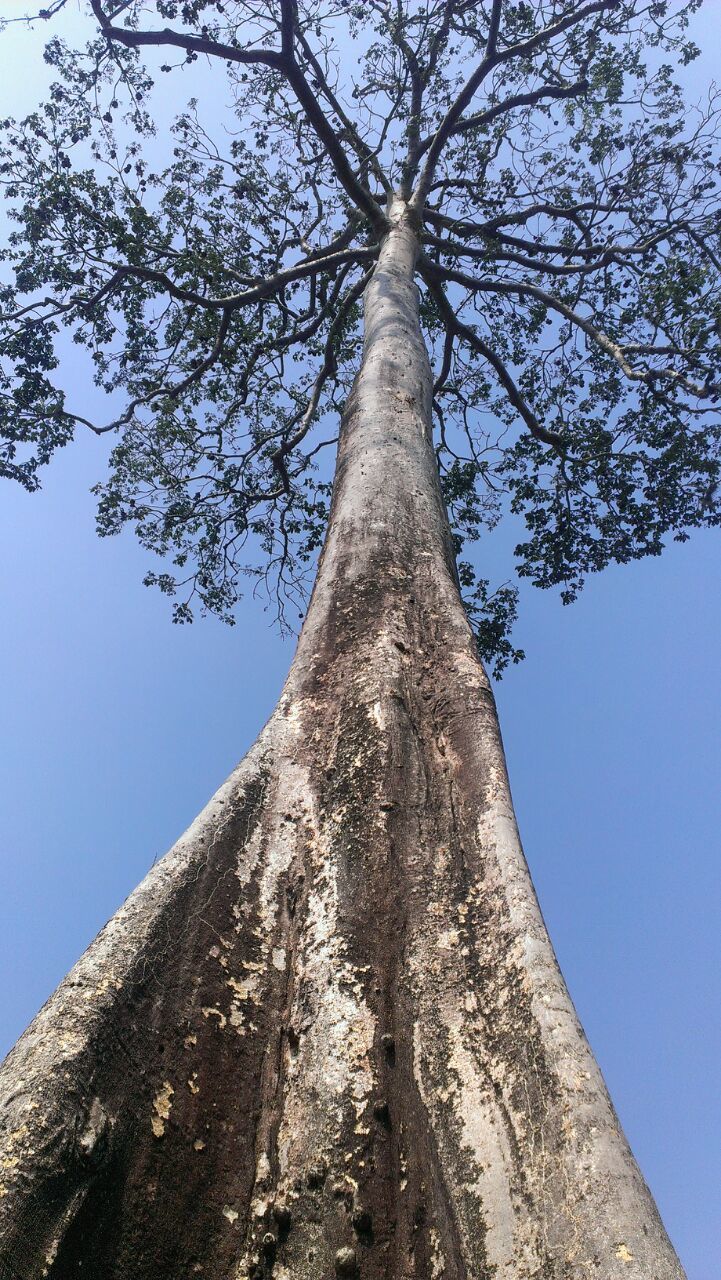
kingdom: Plantae
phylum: Tracheophyta
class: Magnoliopsida
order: Malvales
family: Malvaceae
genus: Ceiba
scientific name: Ceiba pentandra
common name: Kapok
